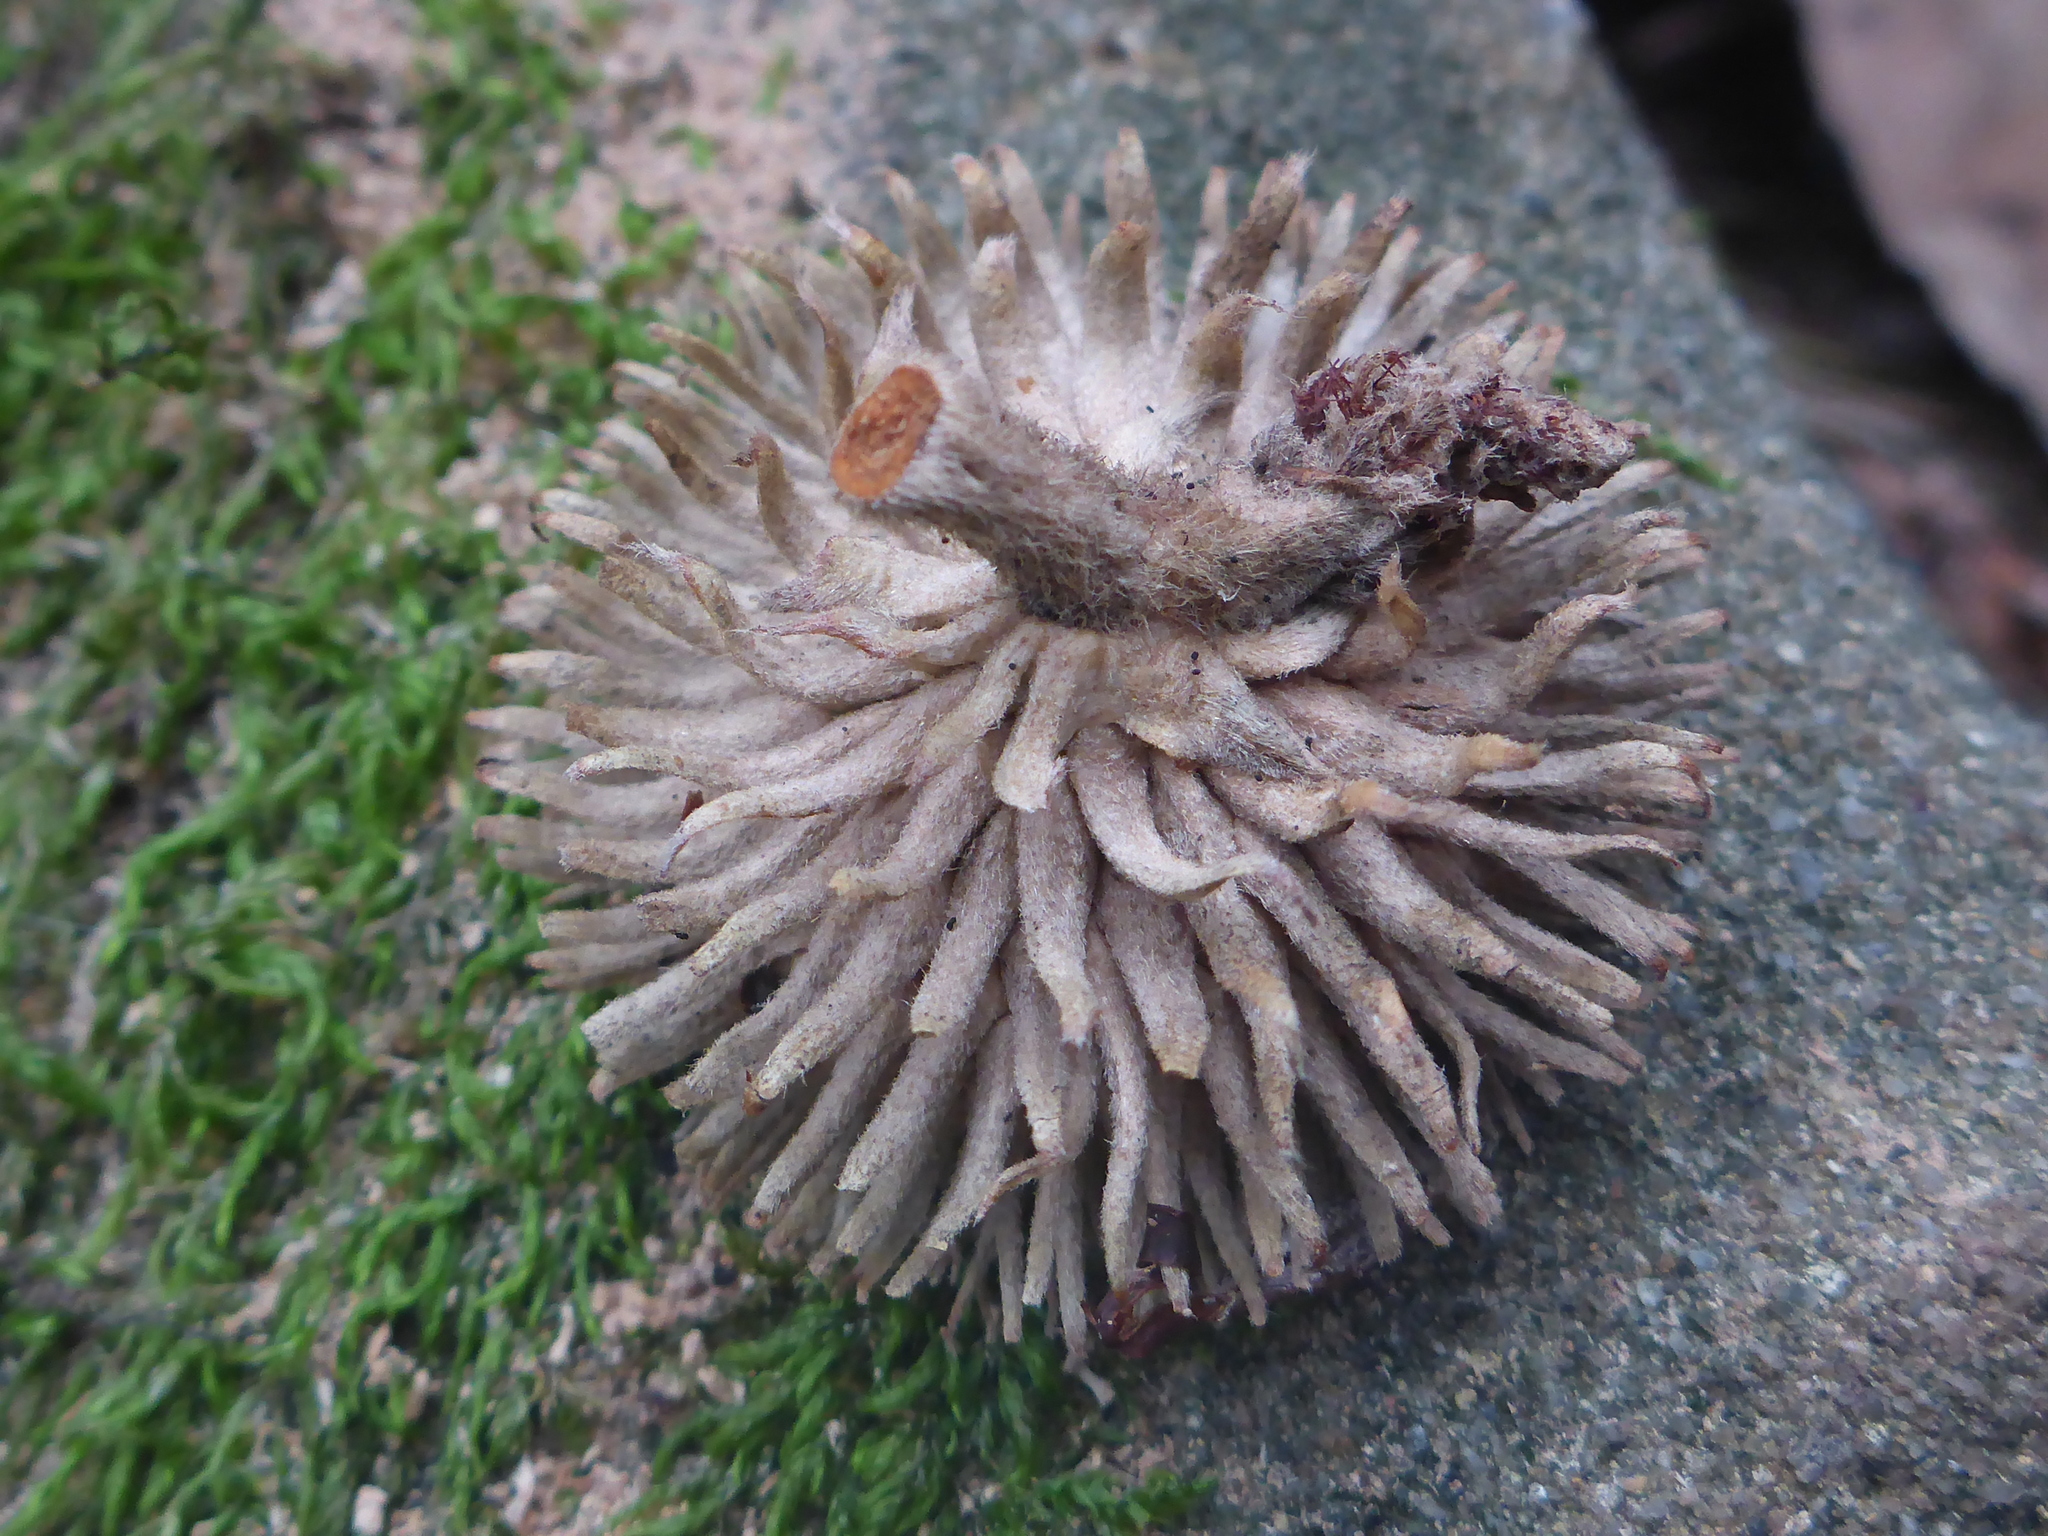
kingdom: Plantae
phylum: Tracheophyta
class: Magnoliopsida
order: Fagales
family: Fagaceae
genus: Notholithocarpus
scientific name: Notholithocarpus densiflorus
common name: Tan bark oak
